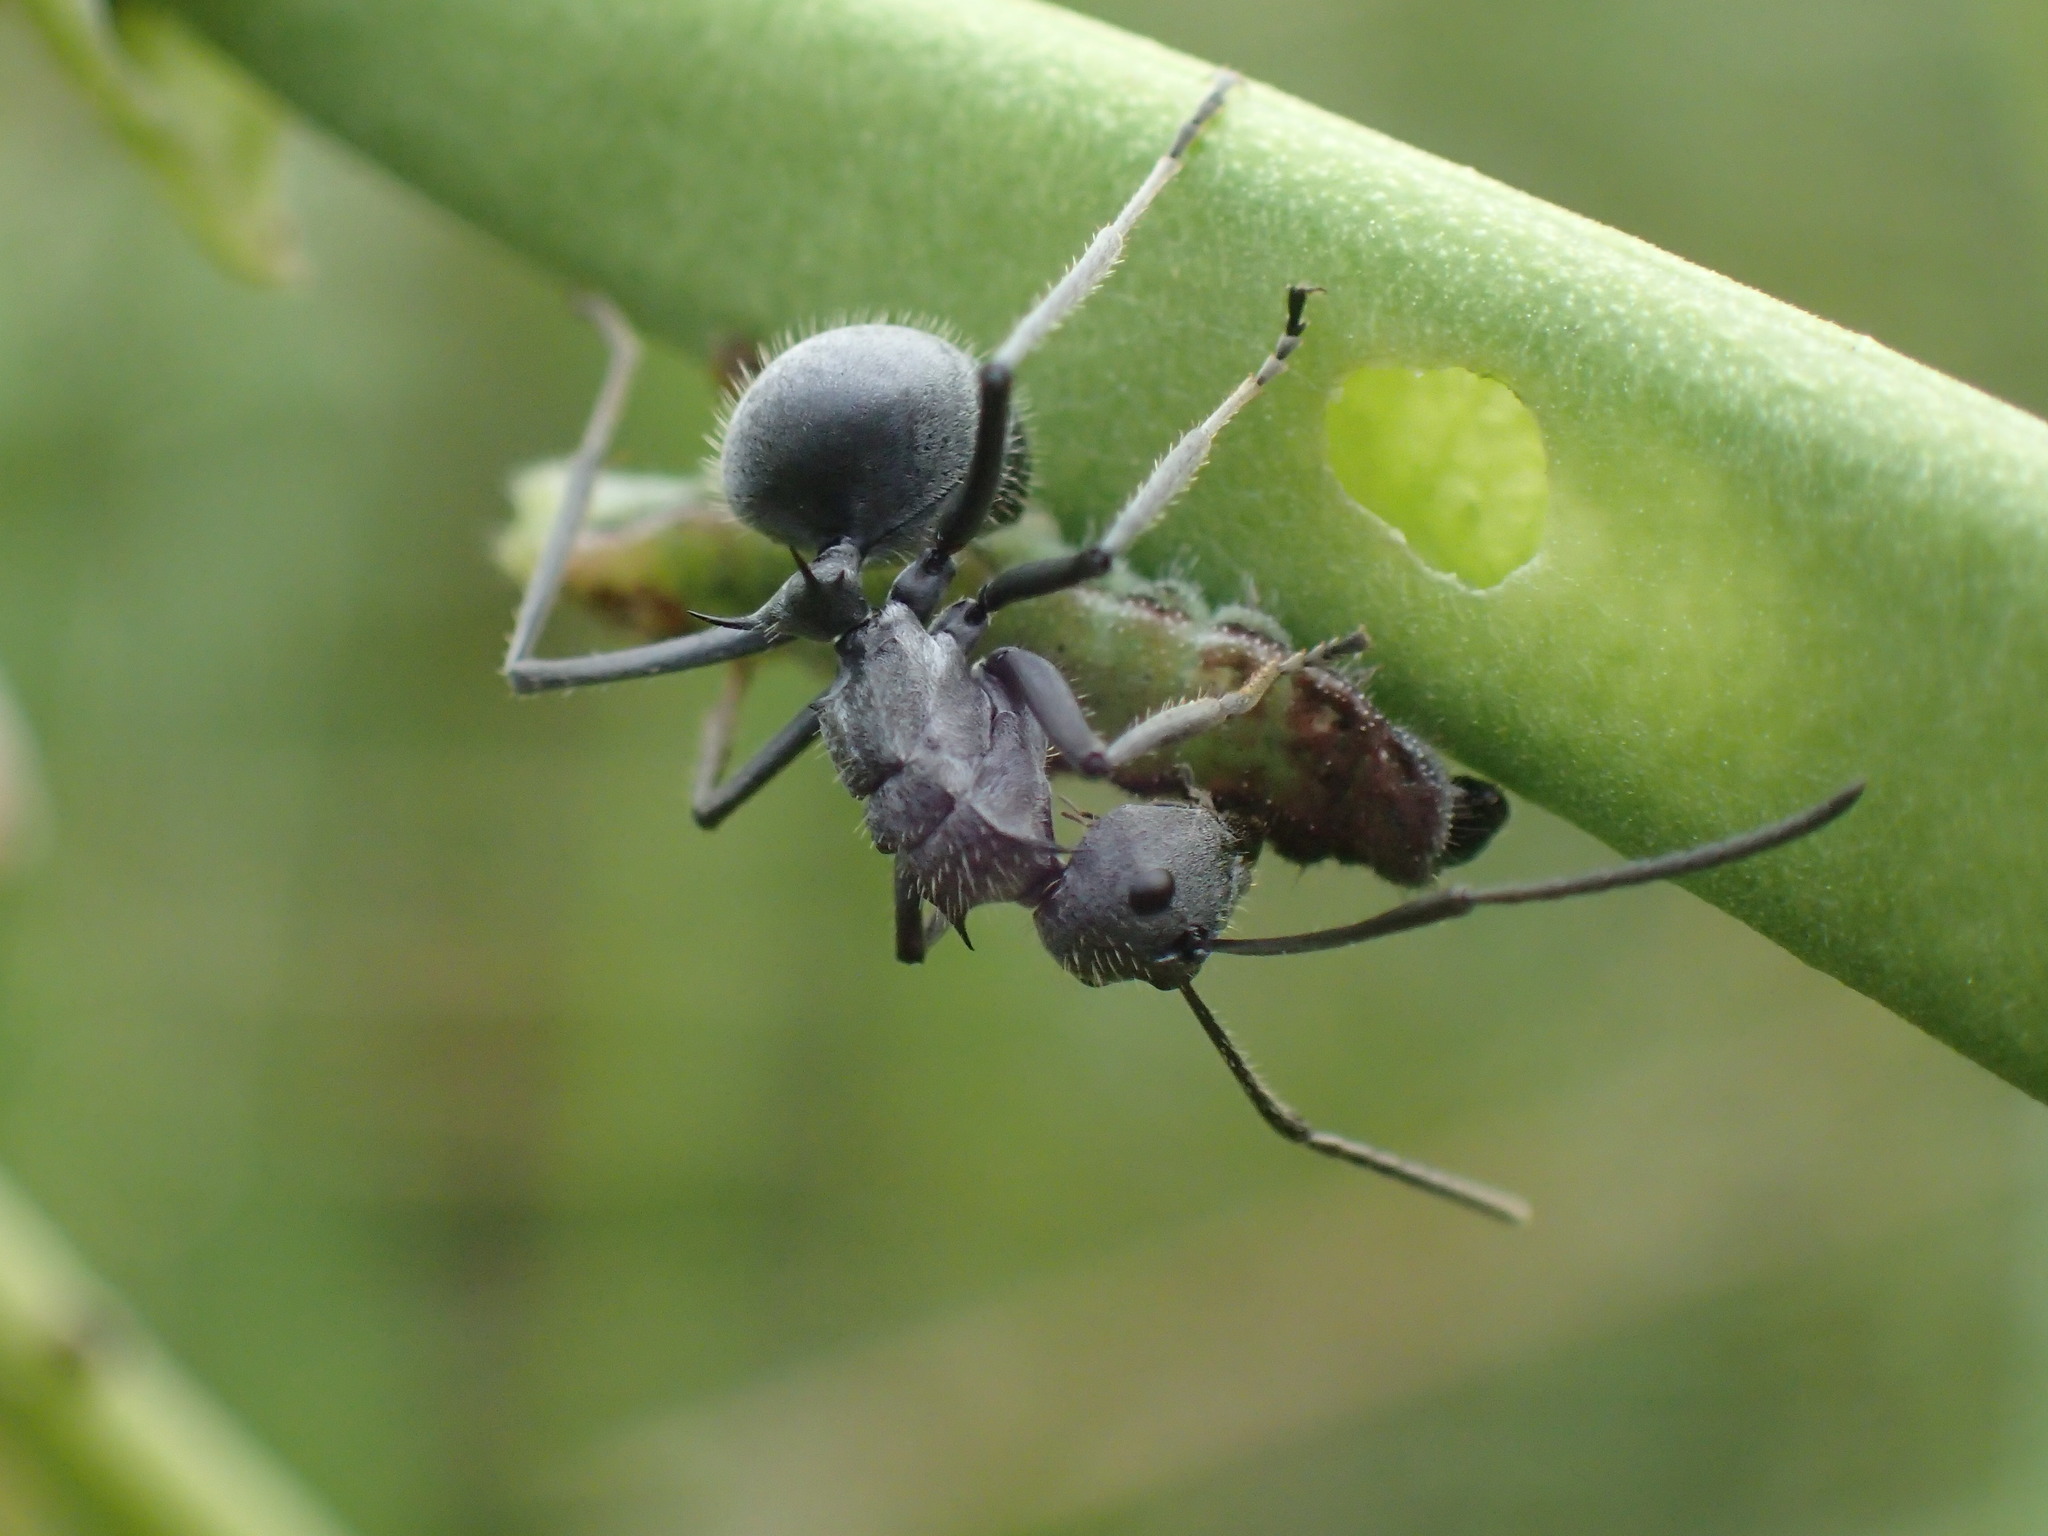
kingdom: Animalia
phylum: Arthropoda
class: Insecta
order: Hymenoptera
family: Formicidae
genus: Polyrhachis
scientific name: Polyrhachis schistacea
